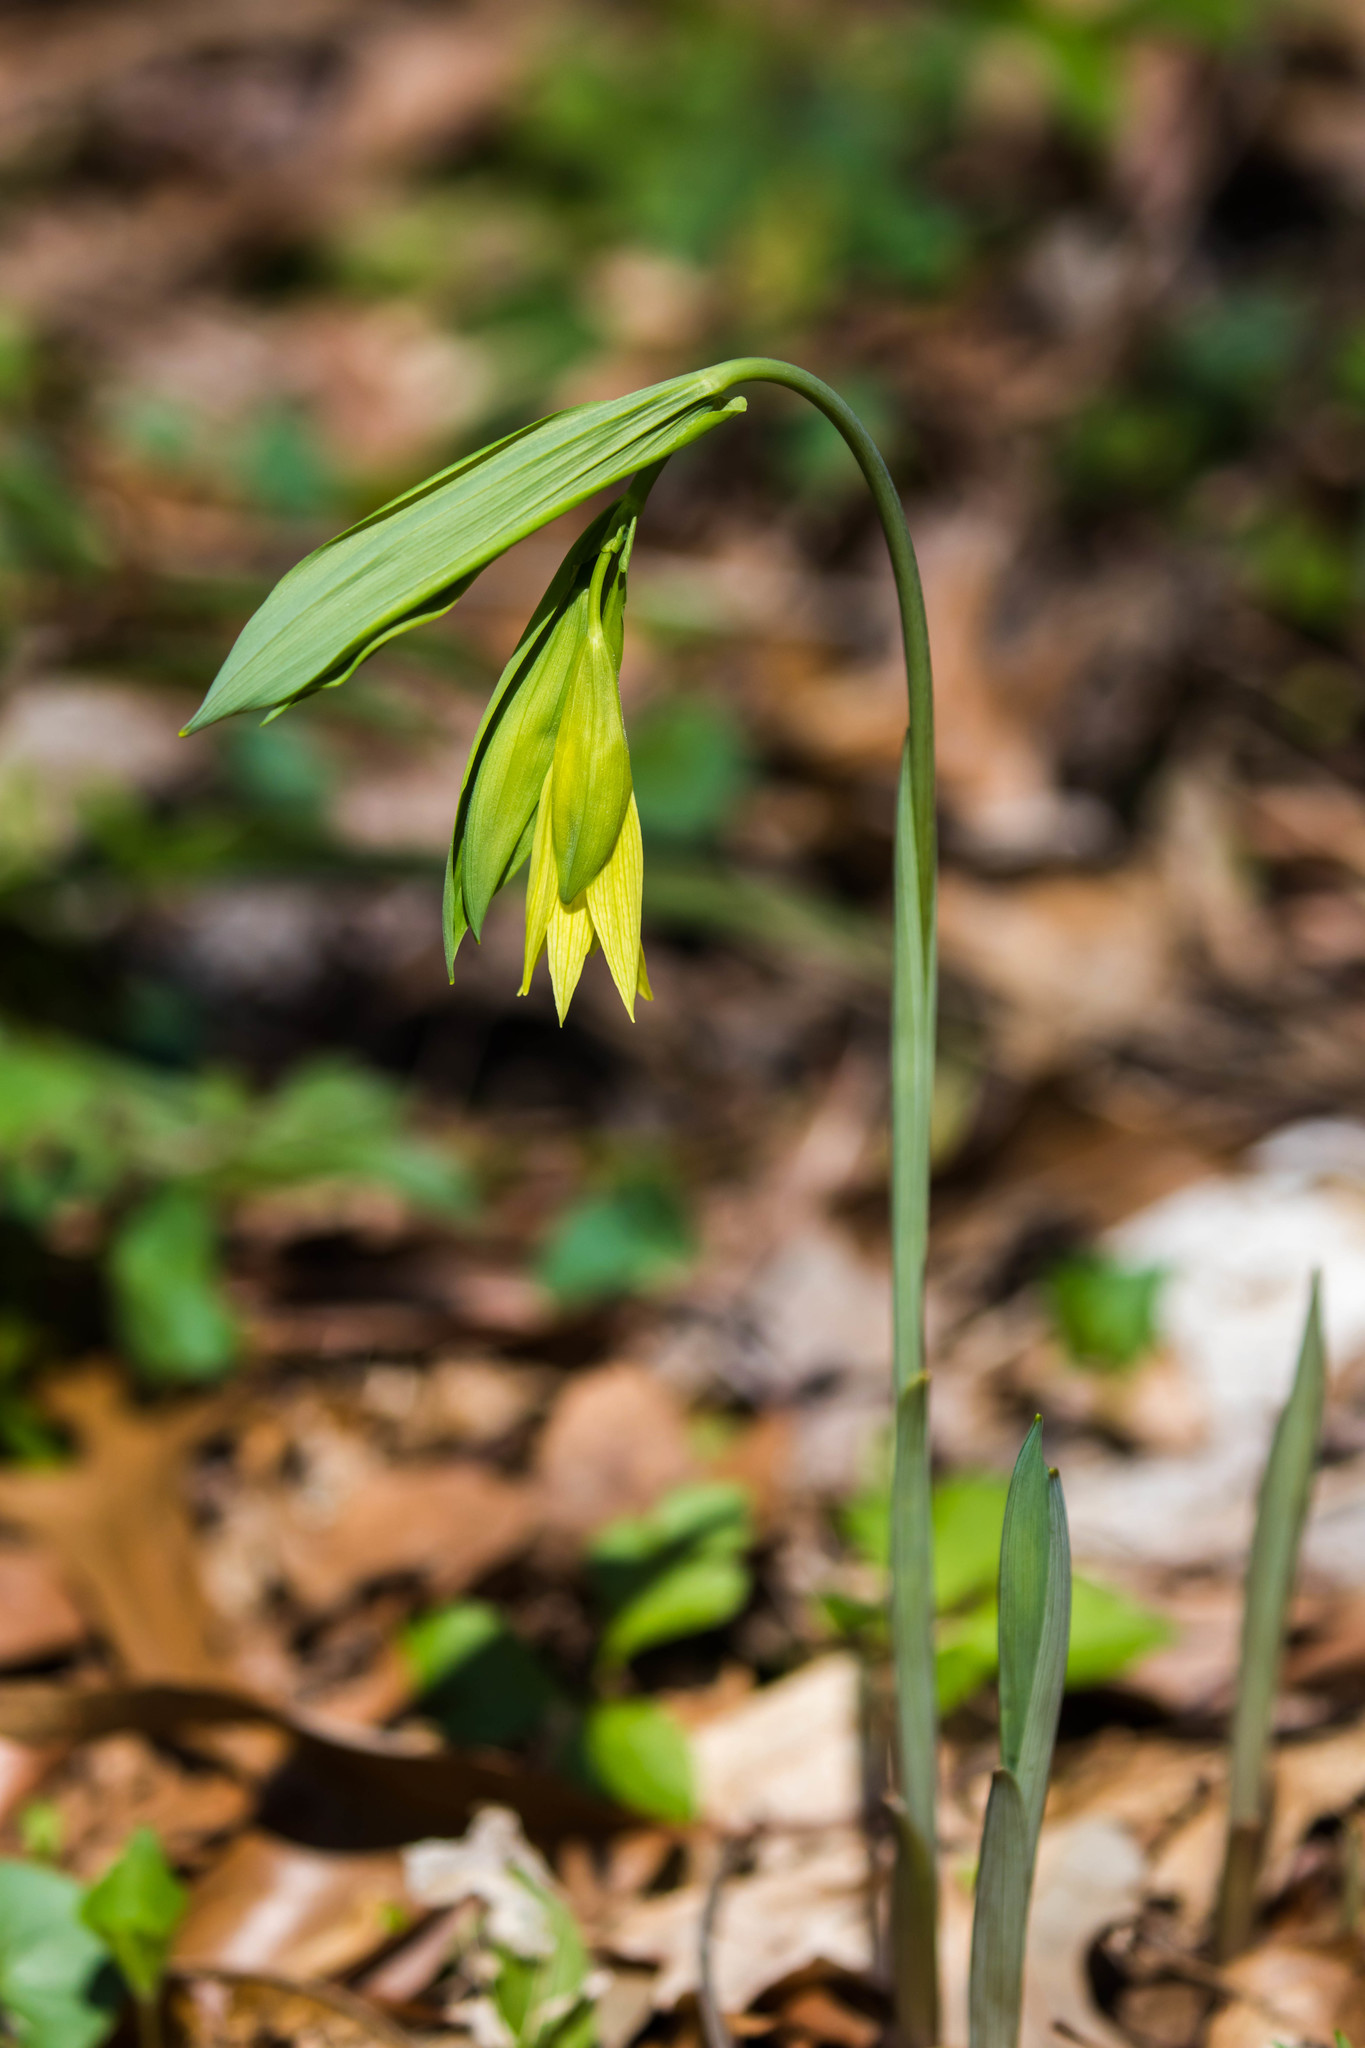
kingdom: Plantae
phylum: Tracheophyta
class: Liliopsida
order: Liliales
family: Colchicaceae
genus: Uvularia
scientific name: Uvularia grandiflora
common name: Bellwort
